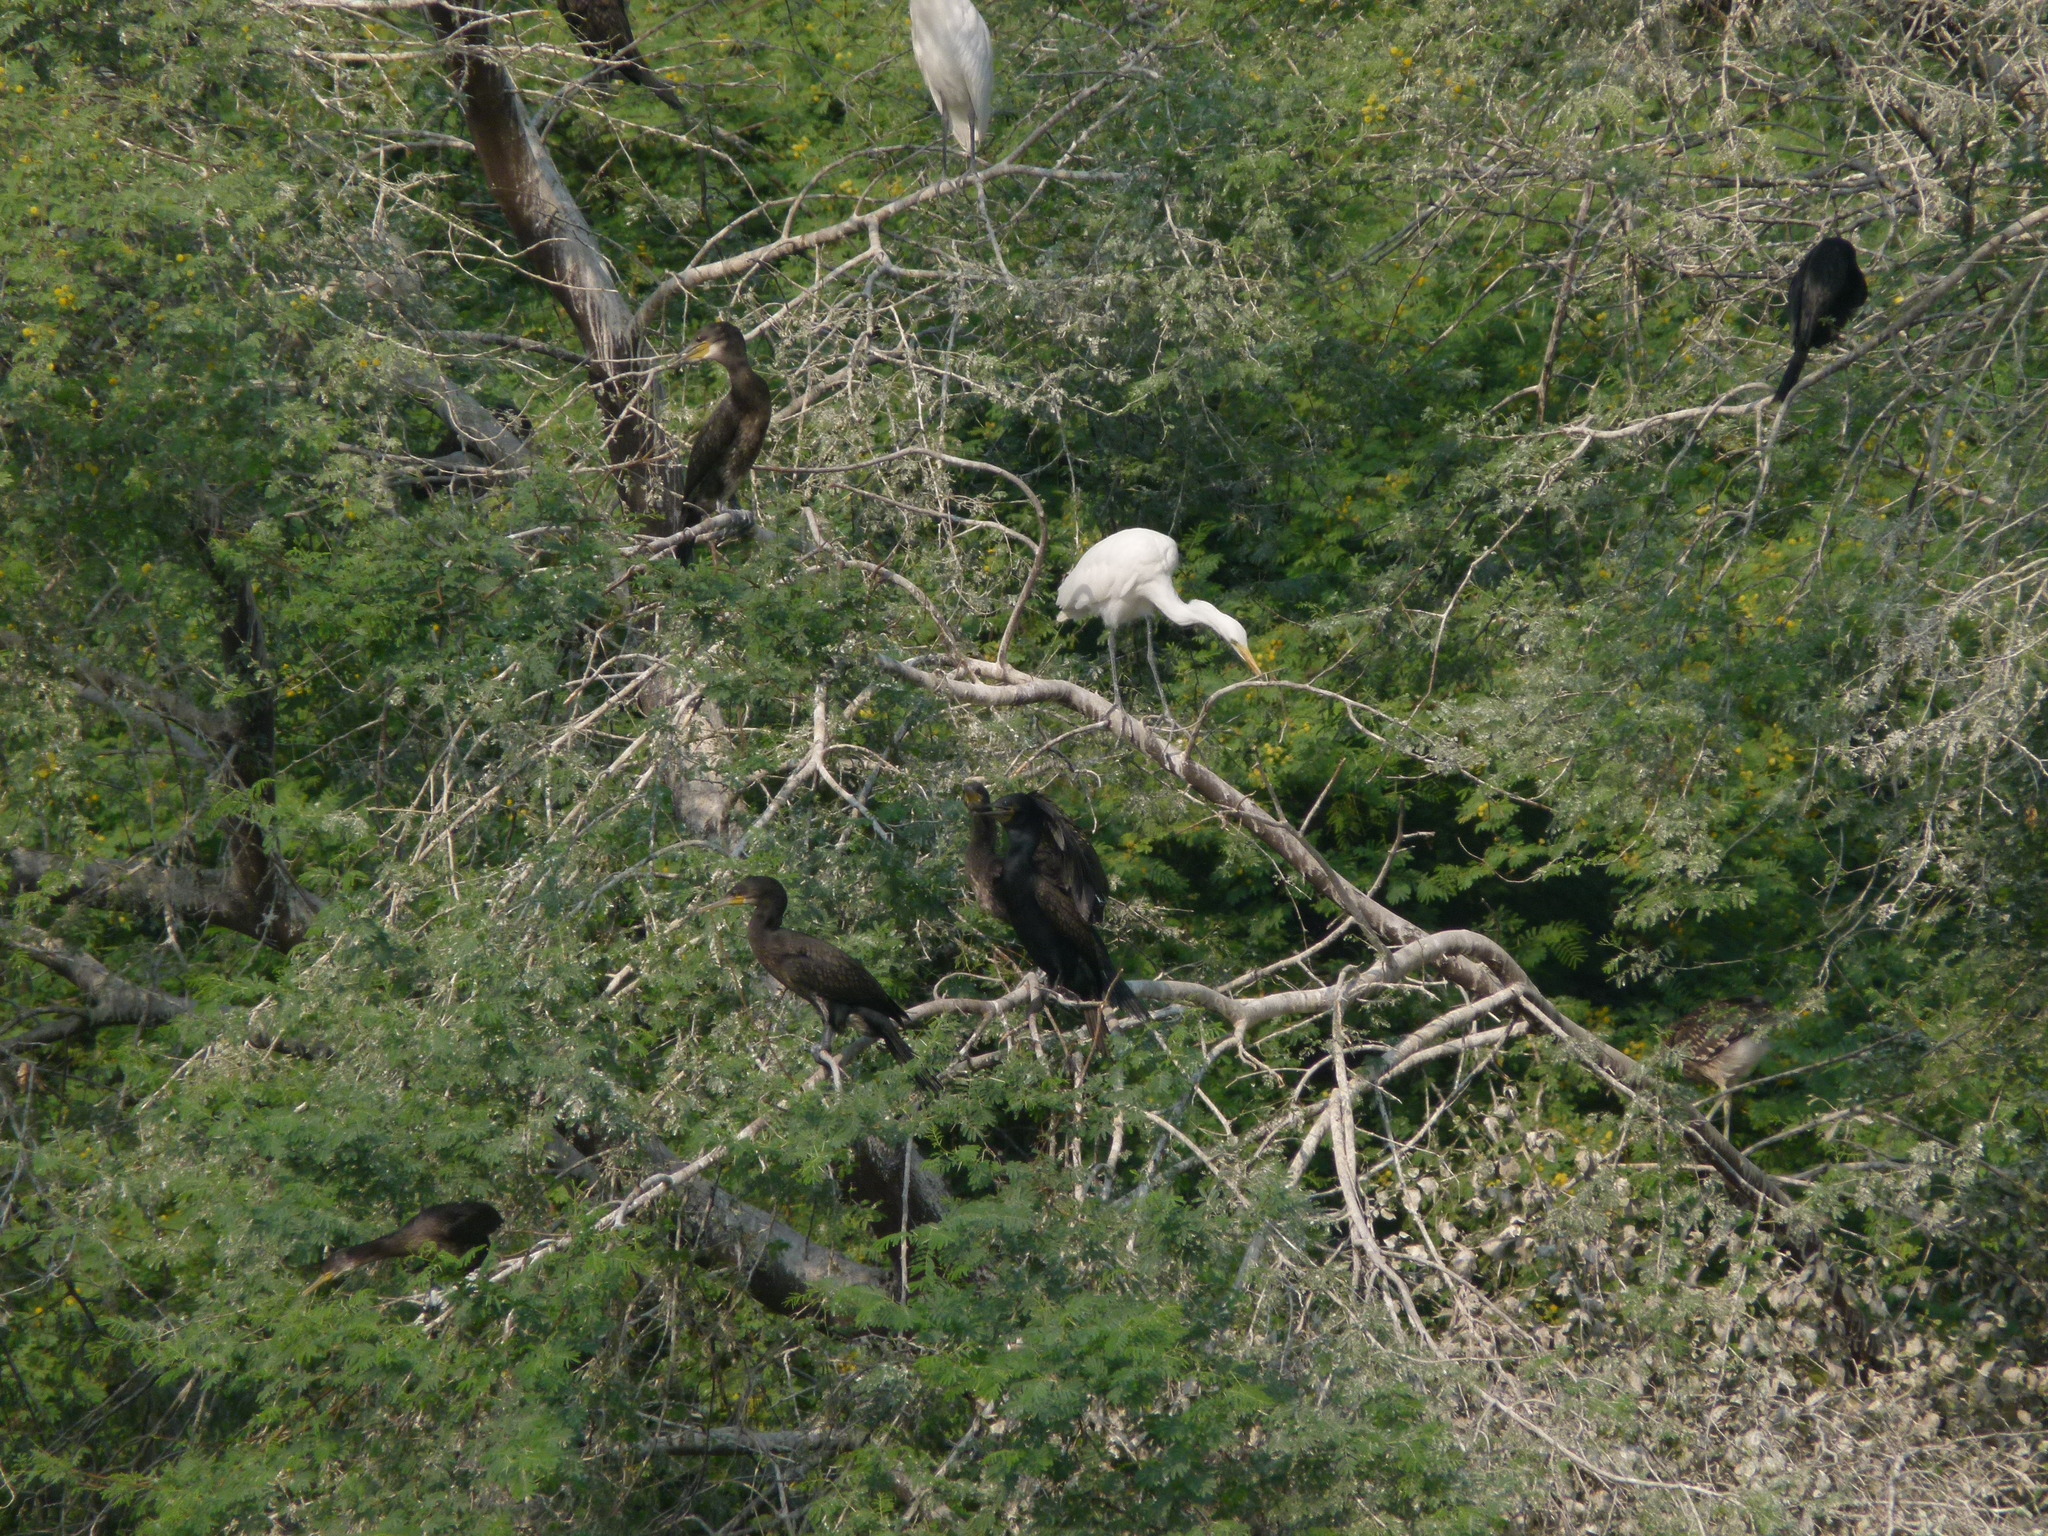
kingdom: Animalia
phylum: Chordata
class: Aves
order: Pelecaniformes
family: Ardeidae
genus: Egretta
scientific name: Egretta intermedia
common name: Intermediate egret
